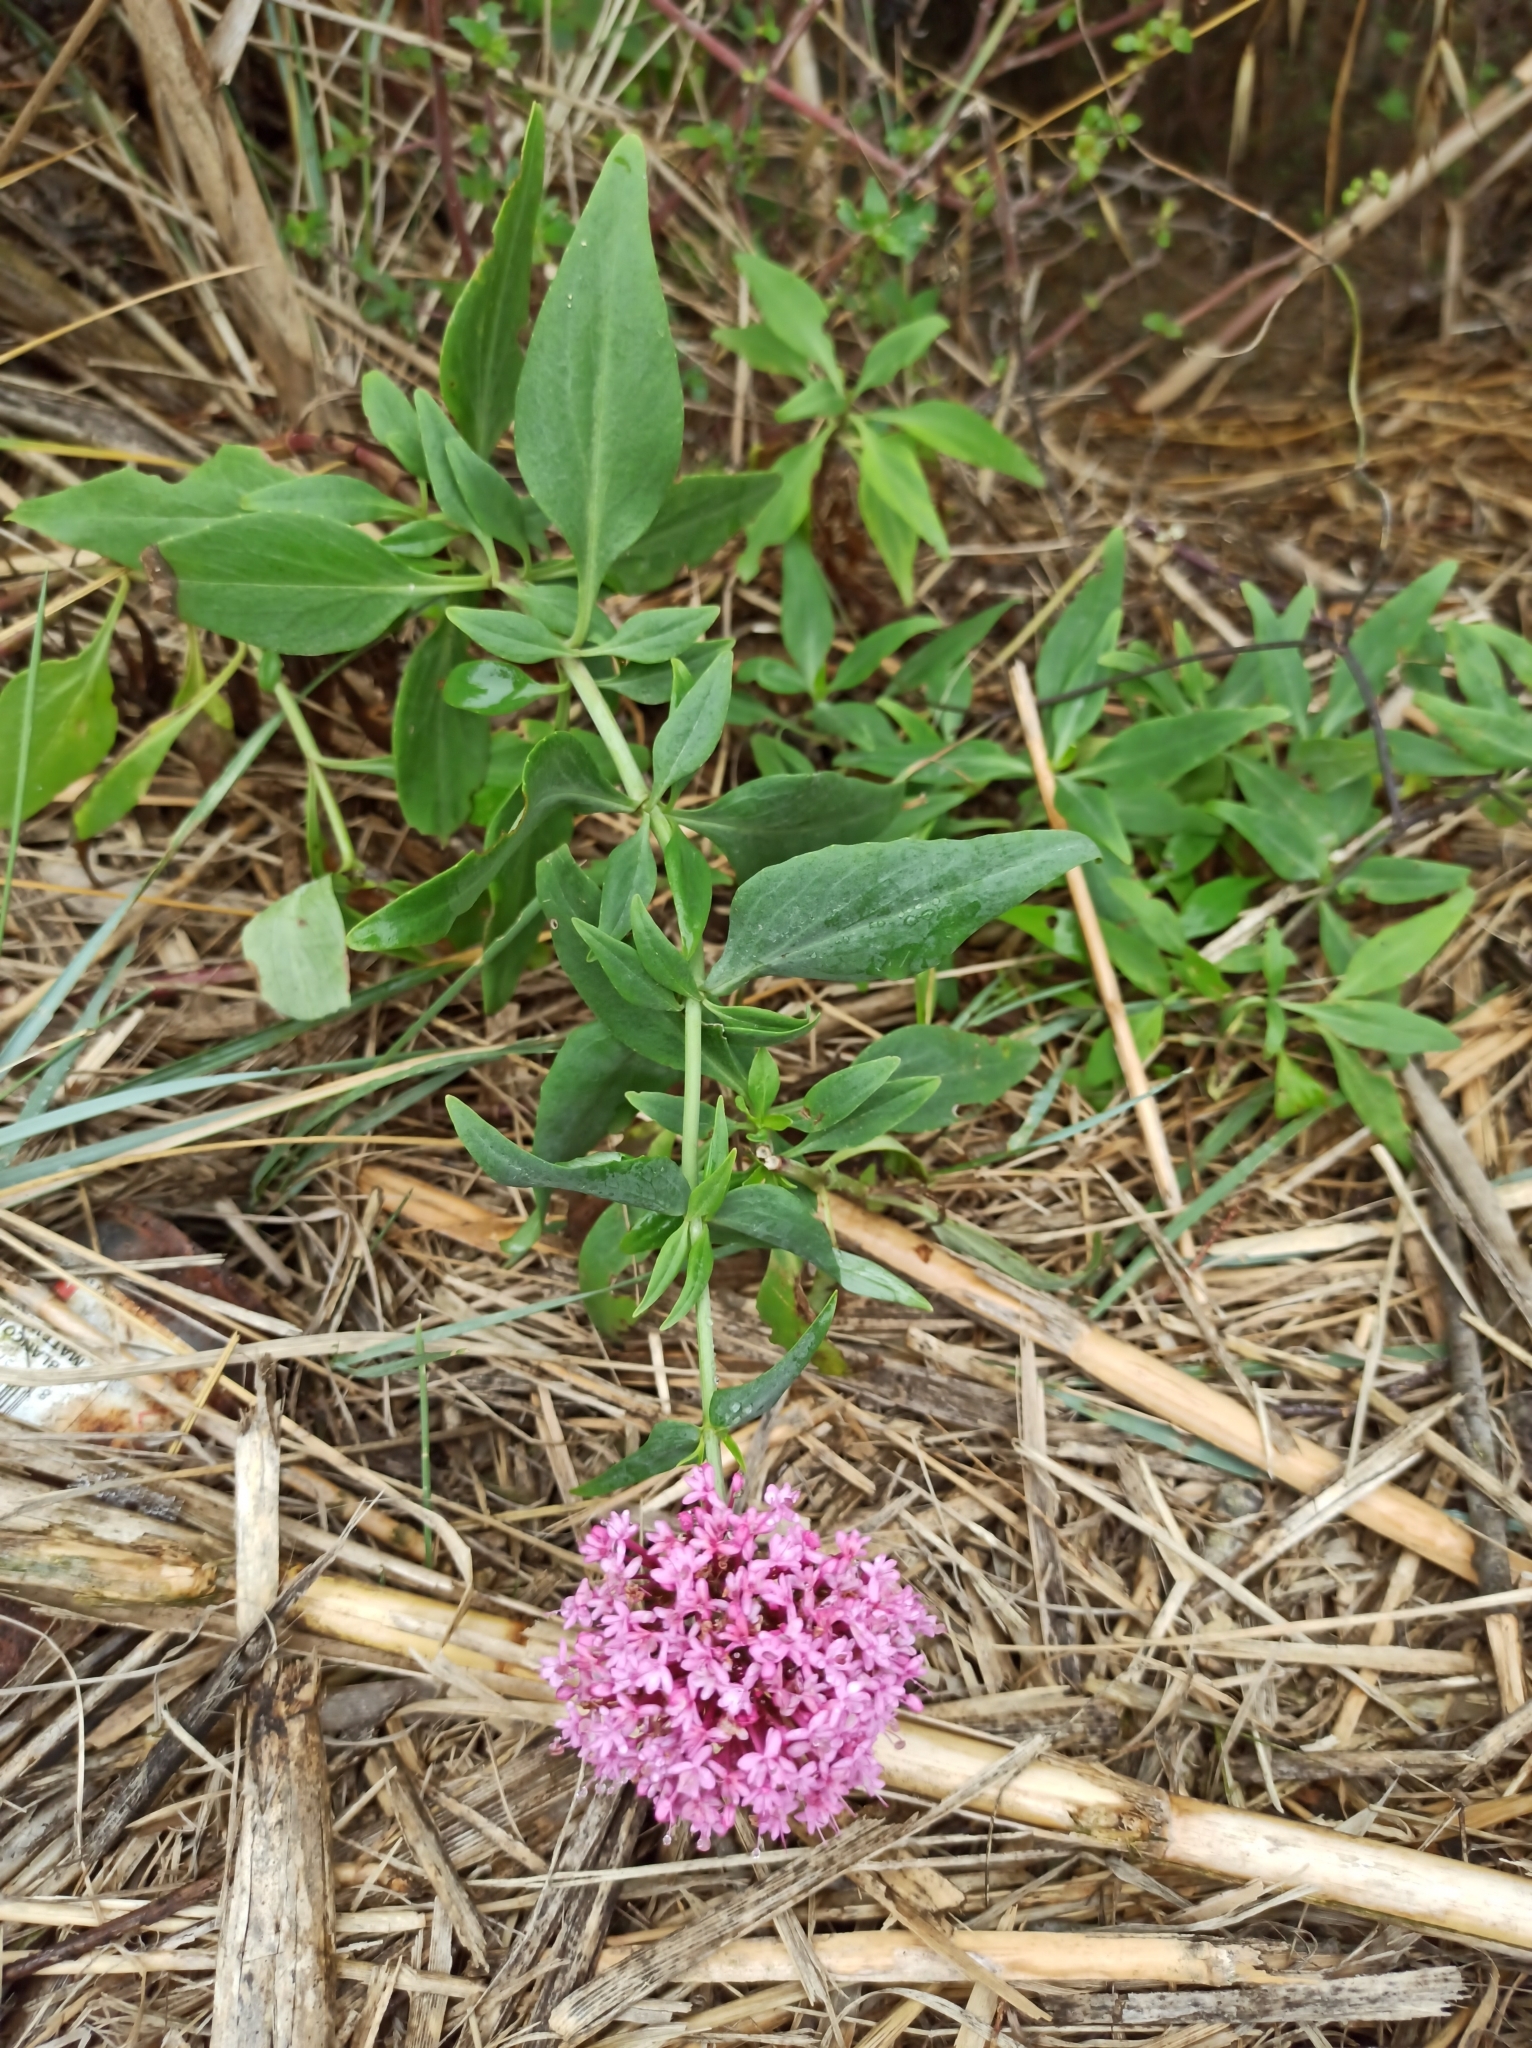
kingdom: Plantae
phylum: Tracheophyta
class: Magnoliopsida
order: Dipsacales
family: Caprifoliaceae
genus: Centranthus
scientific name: Centranthus ruber
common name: Red valerian
